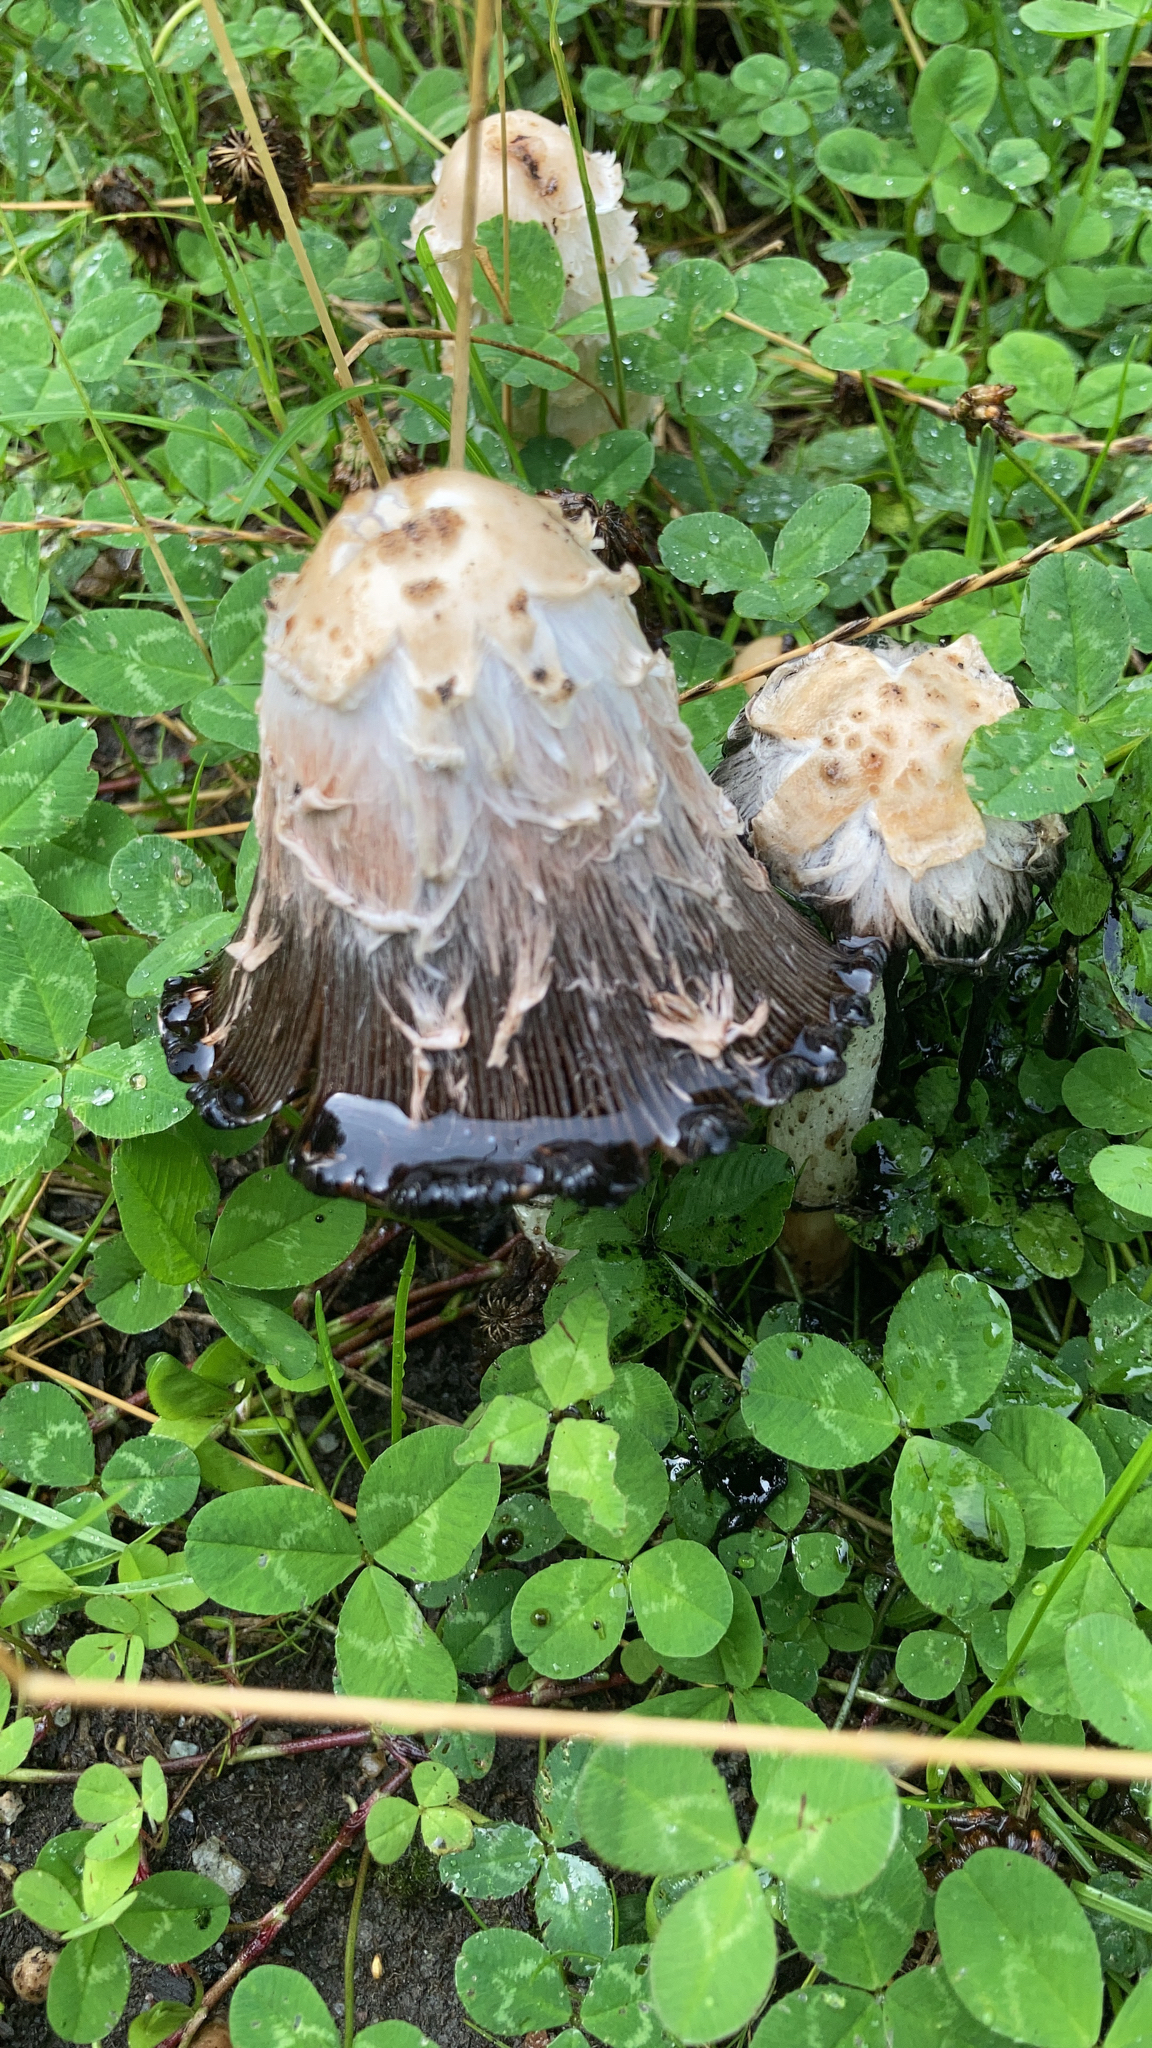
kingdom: Fungi
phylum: Basidiomycota
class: Agaricomycetes
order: Agaricales
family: Agaricaceae
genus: Coprinus
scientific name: Coprinus comatus
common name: Lawyer's wig
